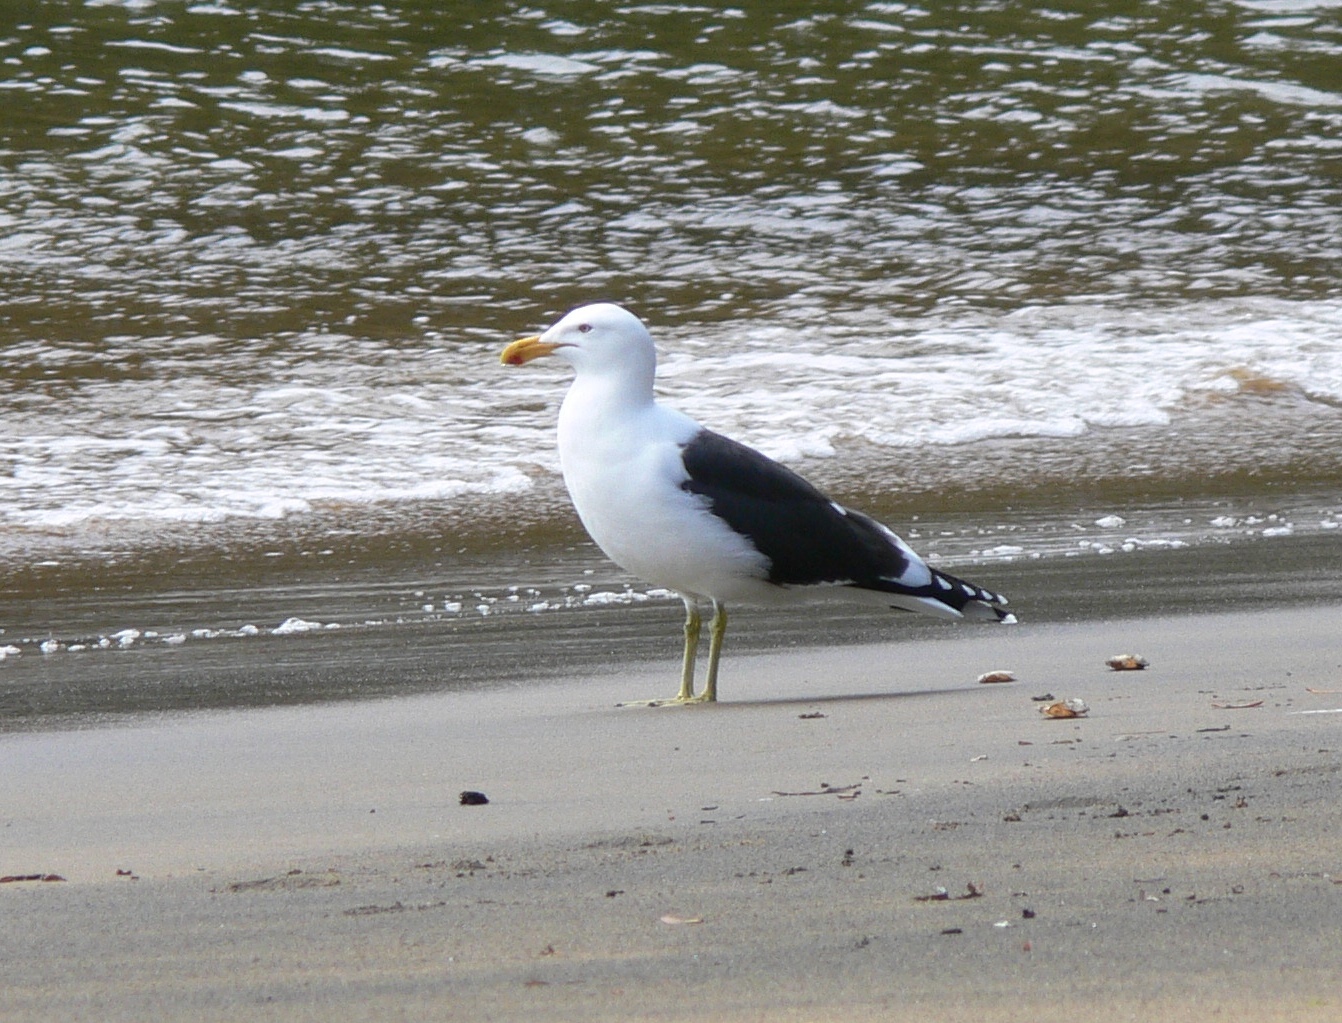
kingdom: Animalia
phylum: Chordata
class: Aves
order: Charadriiformes
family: Laridae
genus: Larus
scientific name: Larus dominicanus
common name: Kelp gull
